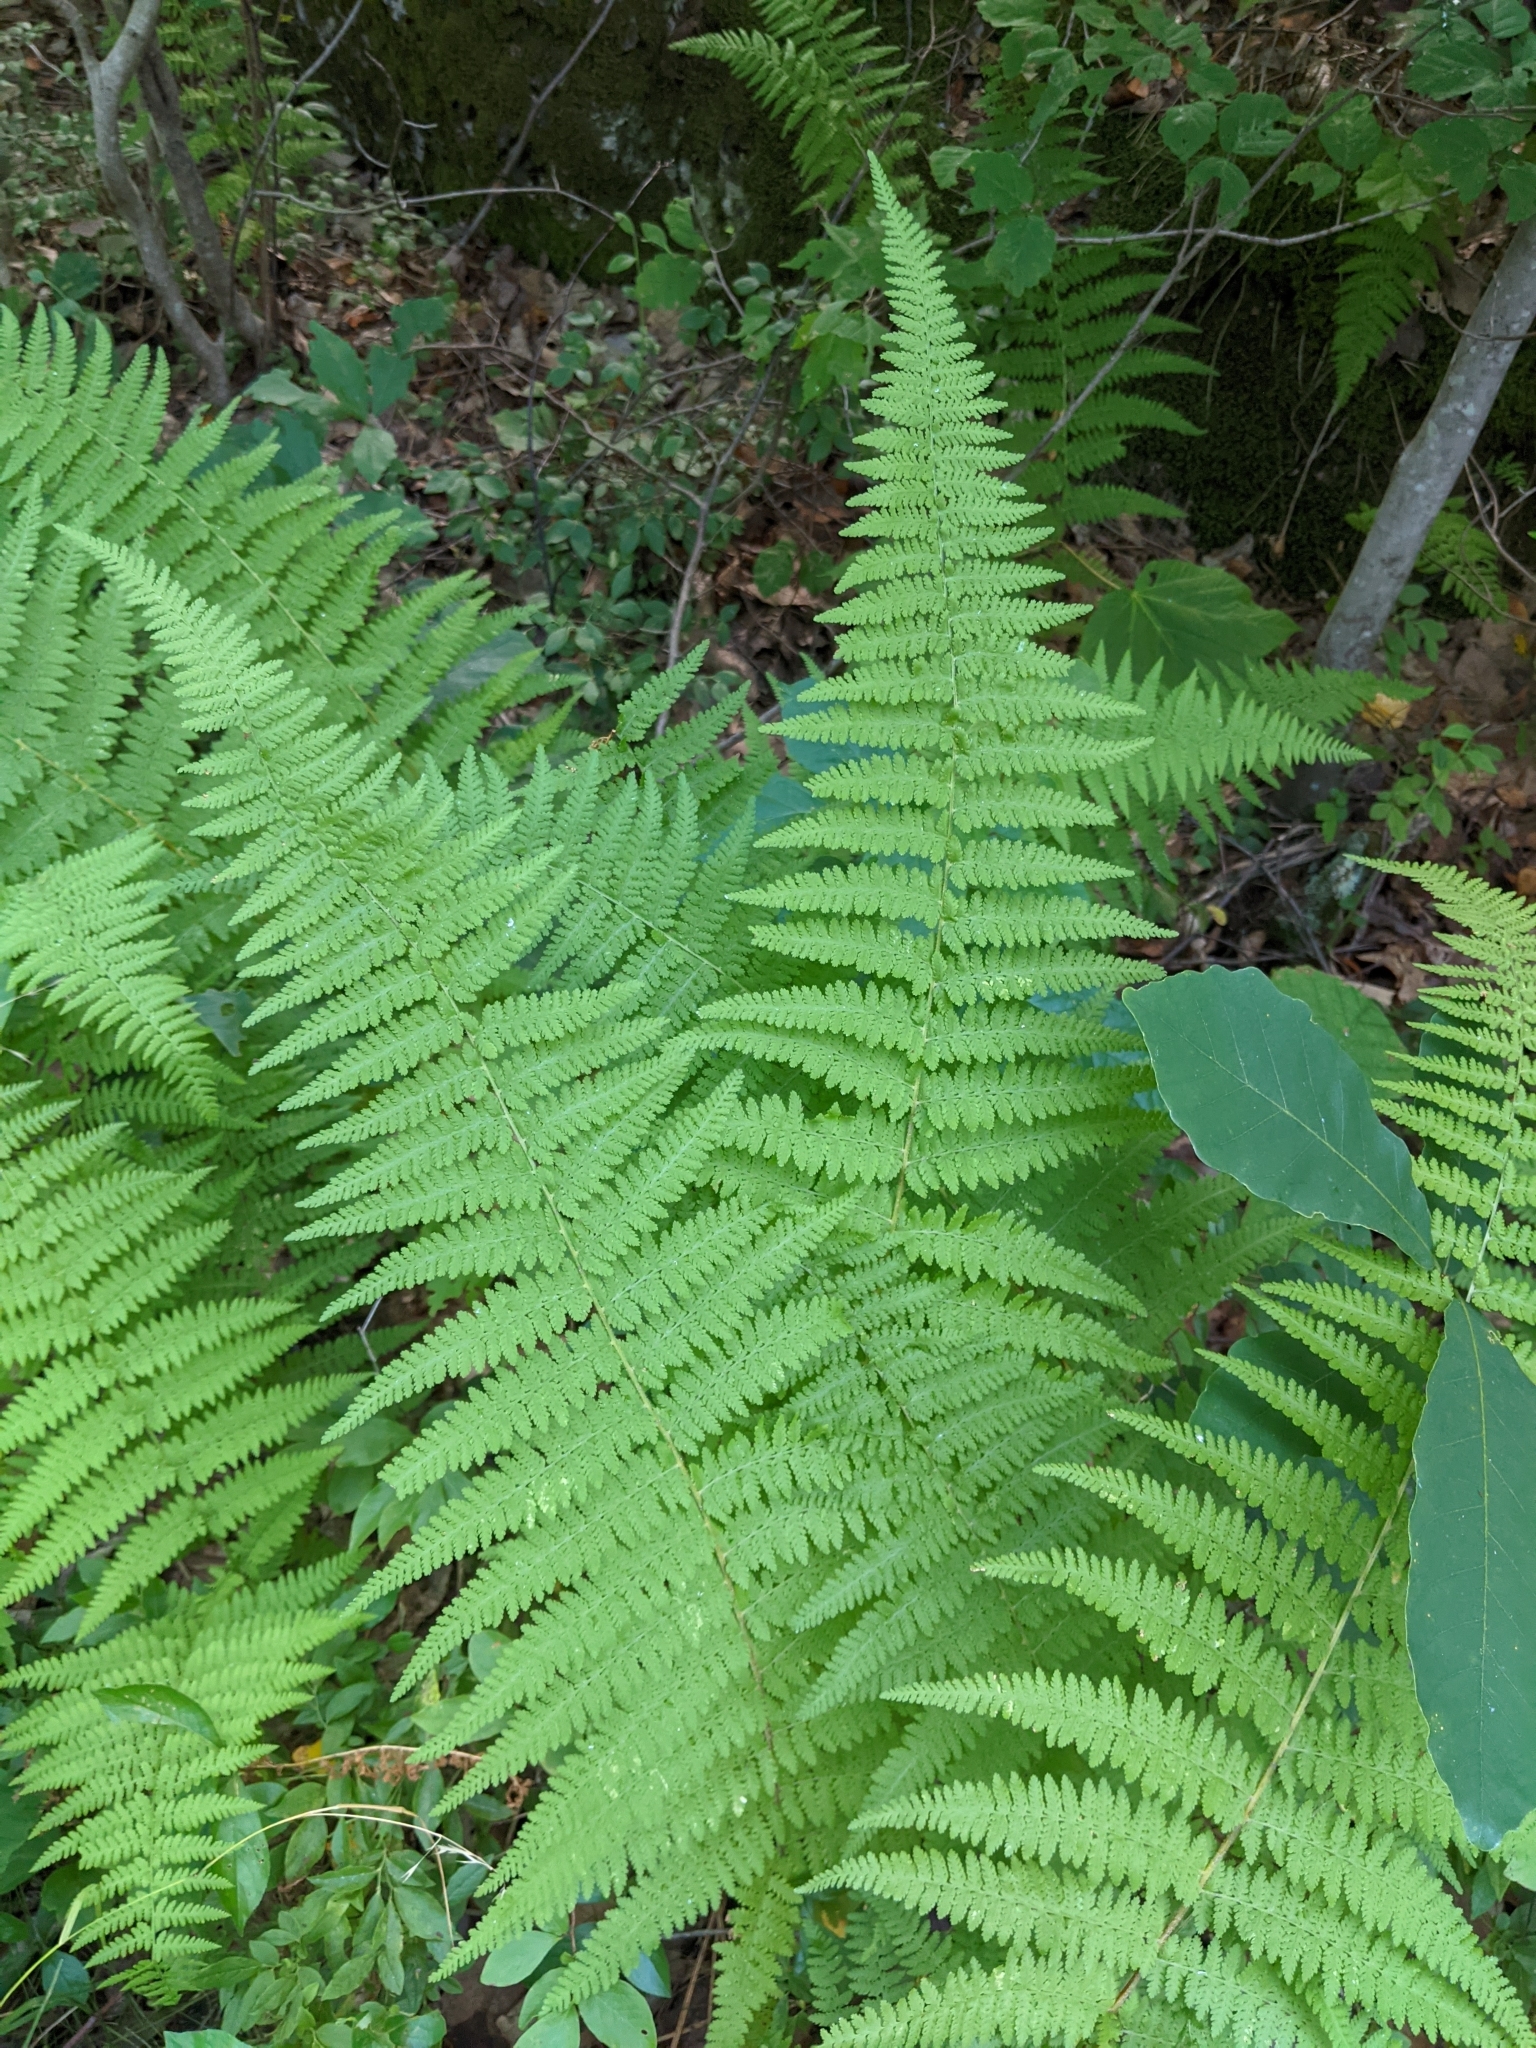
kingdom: Plantae
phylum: Tracheophyta
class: Polypodiopsida
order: Polypodiales
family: Dennstaedtiaceae
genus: Sitobolium
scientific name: Sitobolium punctilobum
